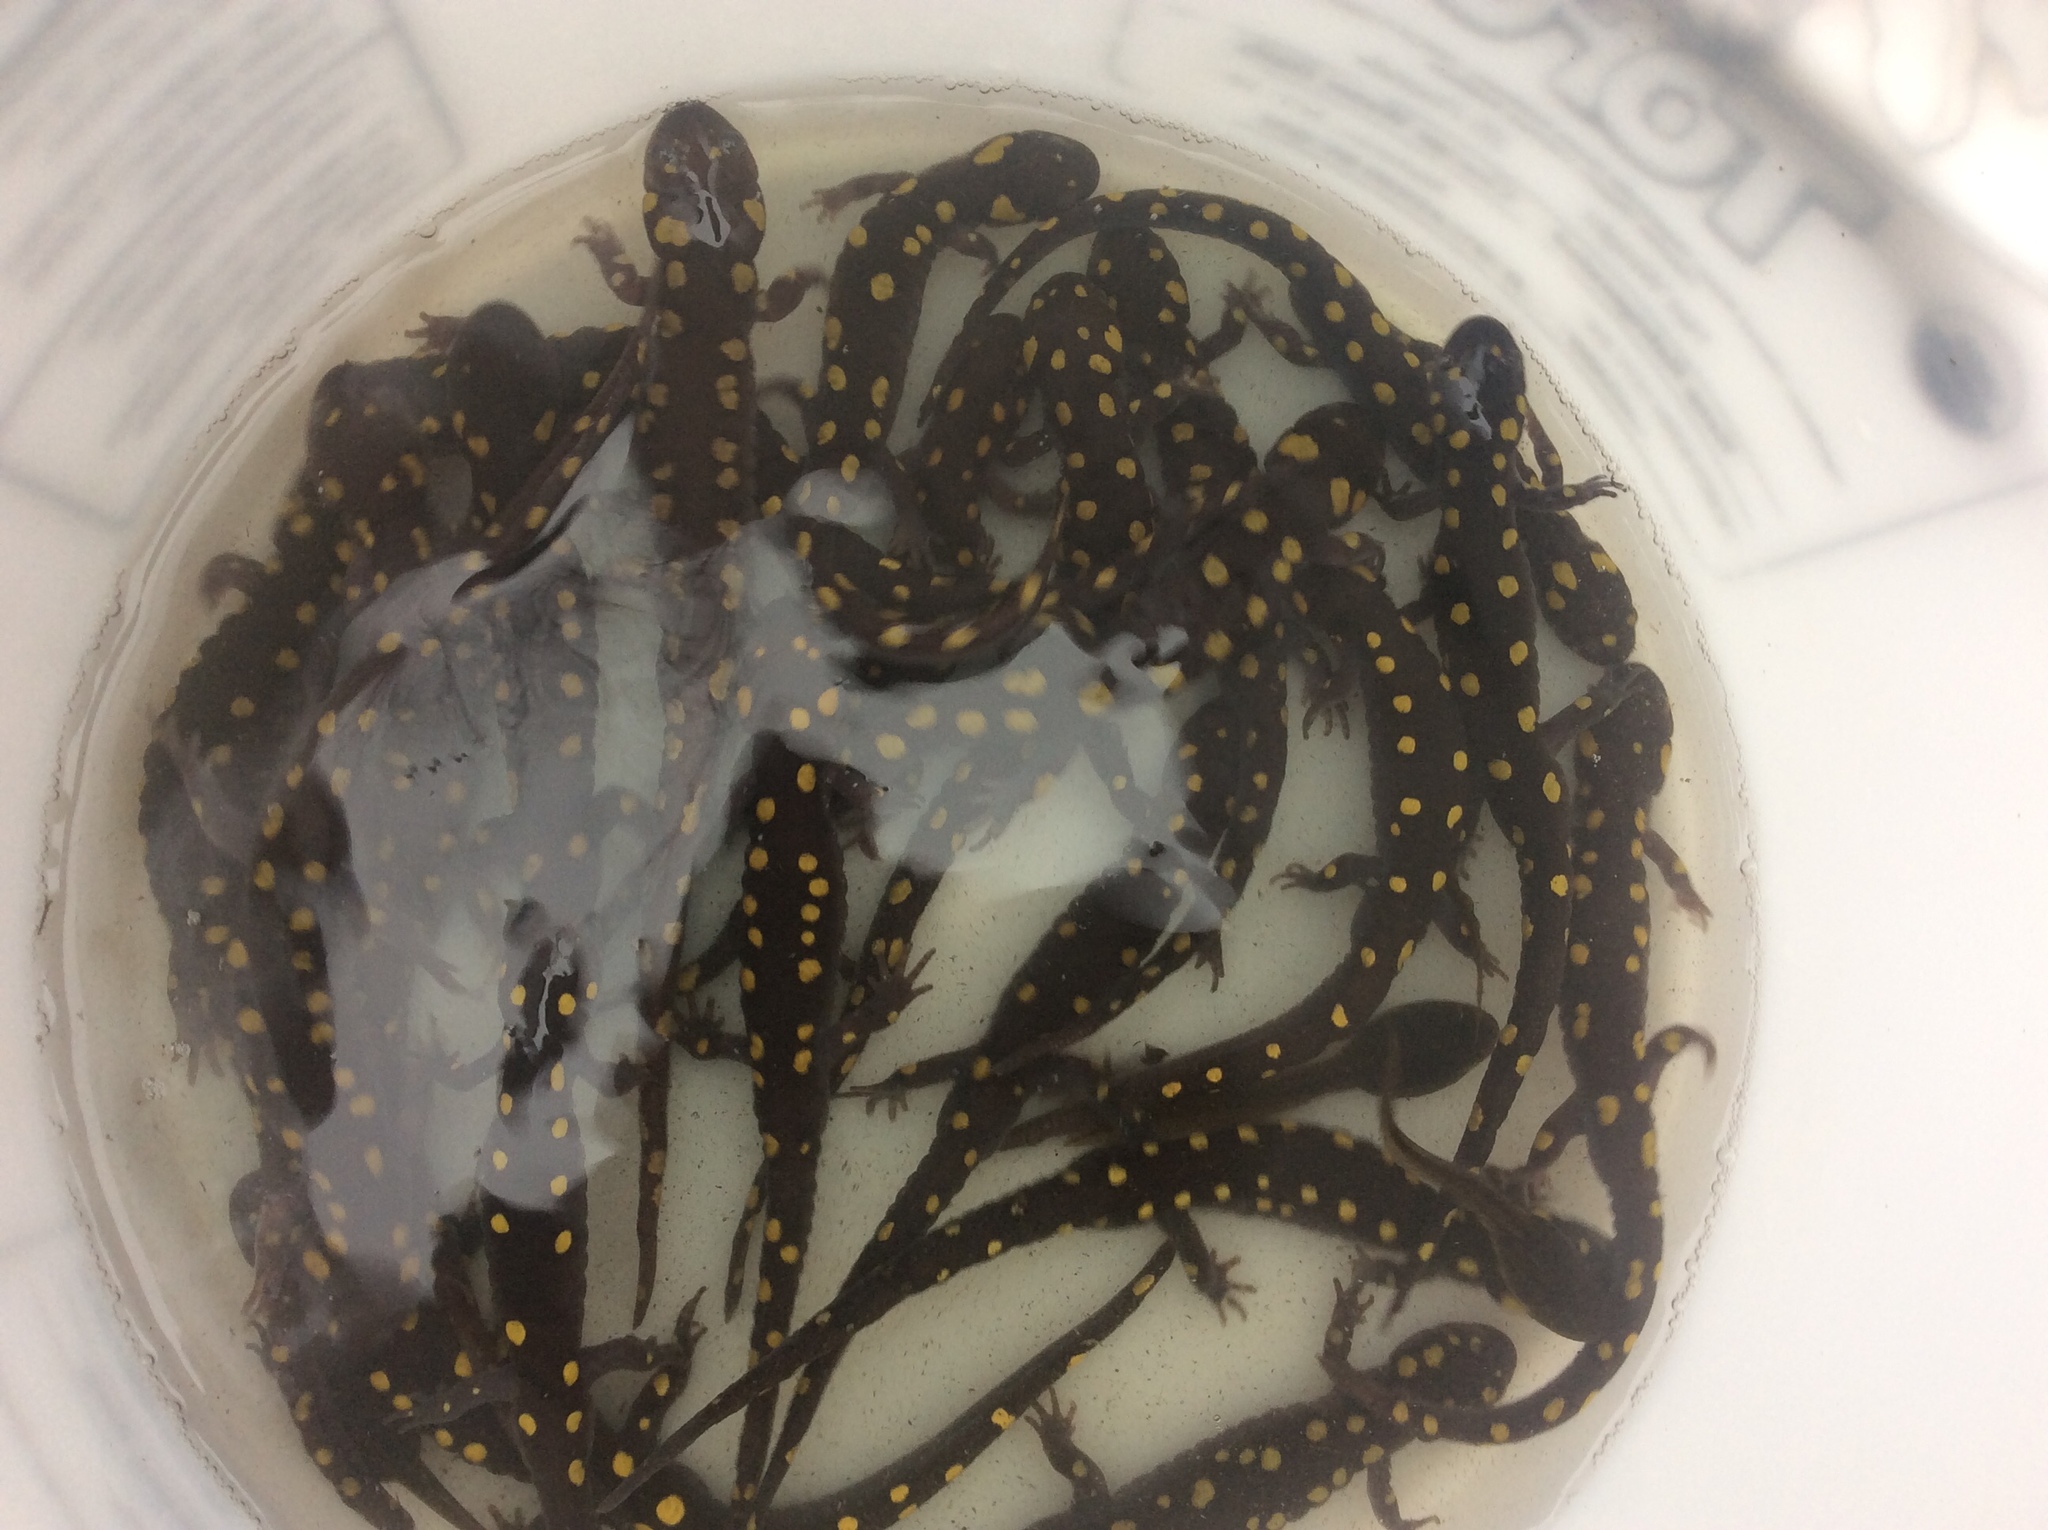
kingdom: Animalia
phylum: Chordata
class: Amphibia
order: Caudata
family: Ambystomatidae
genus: Ambystoma
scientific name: Ambystoma maculatum
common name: Spotted salamander
